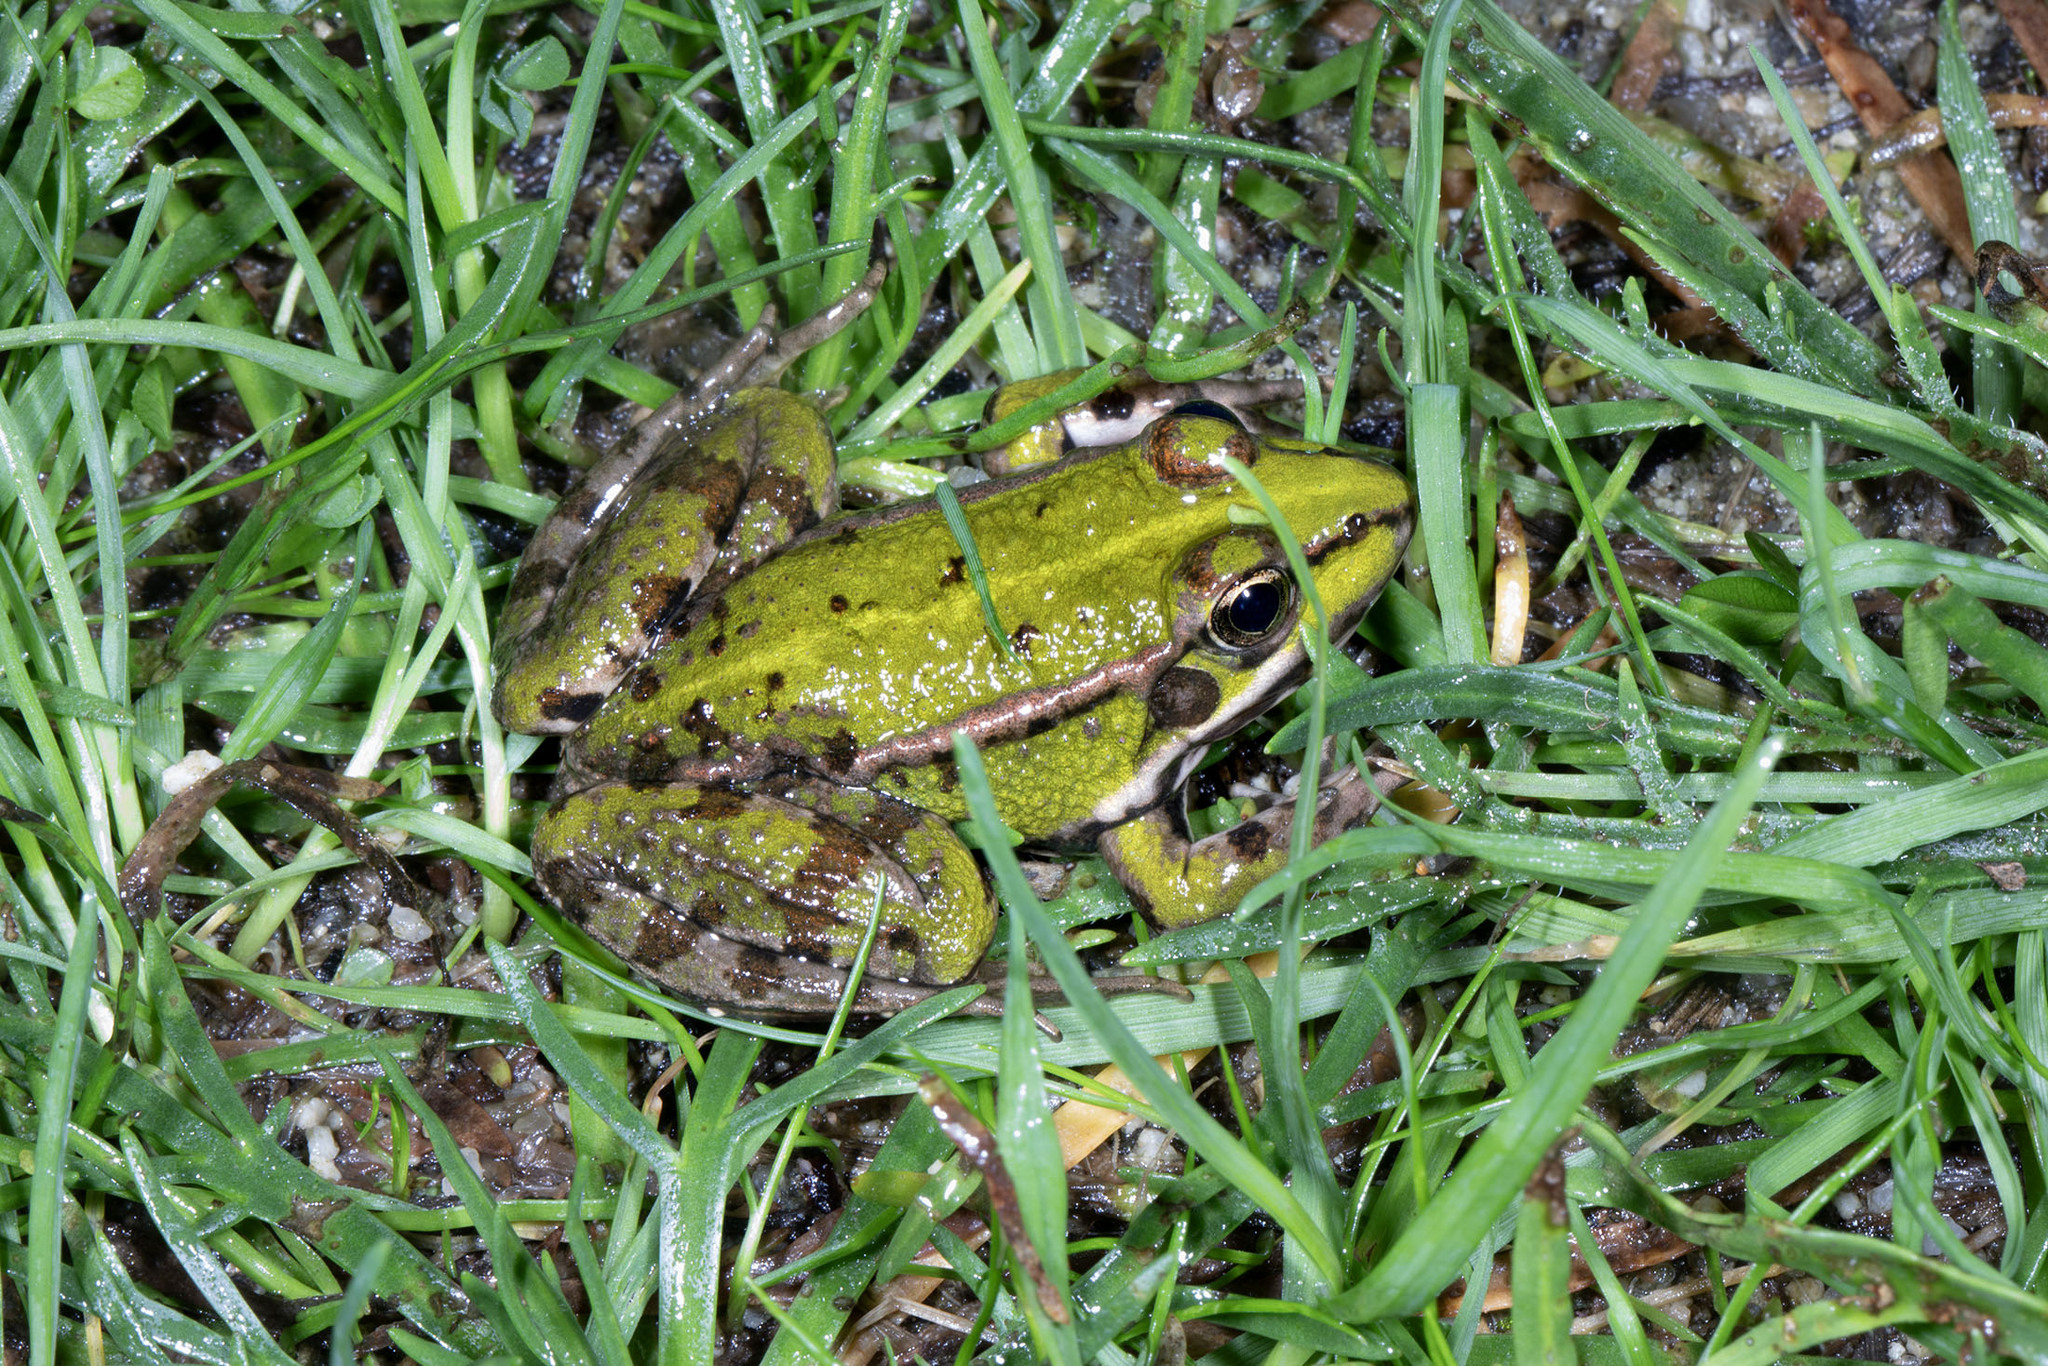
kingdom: Animalia
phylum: Chordata
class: Amphibia
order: Anura
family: Ranidae
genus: Pelophylax
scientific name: Pelophylax perezi
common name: Perez's frog
